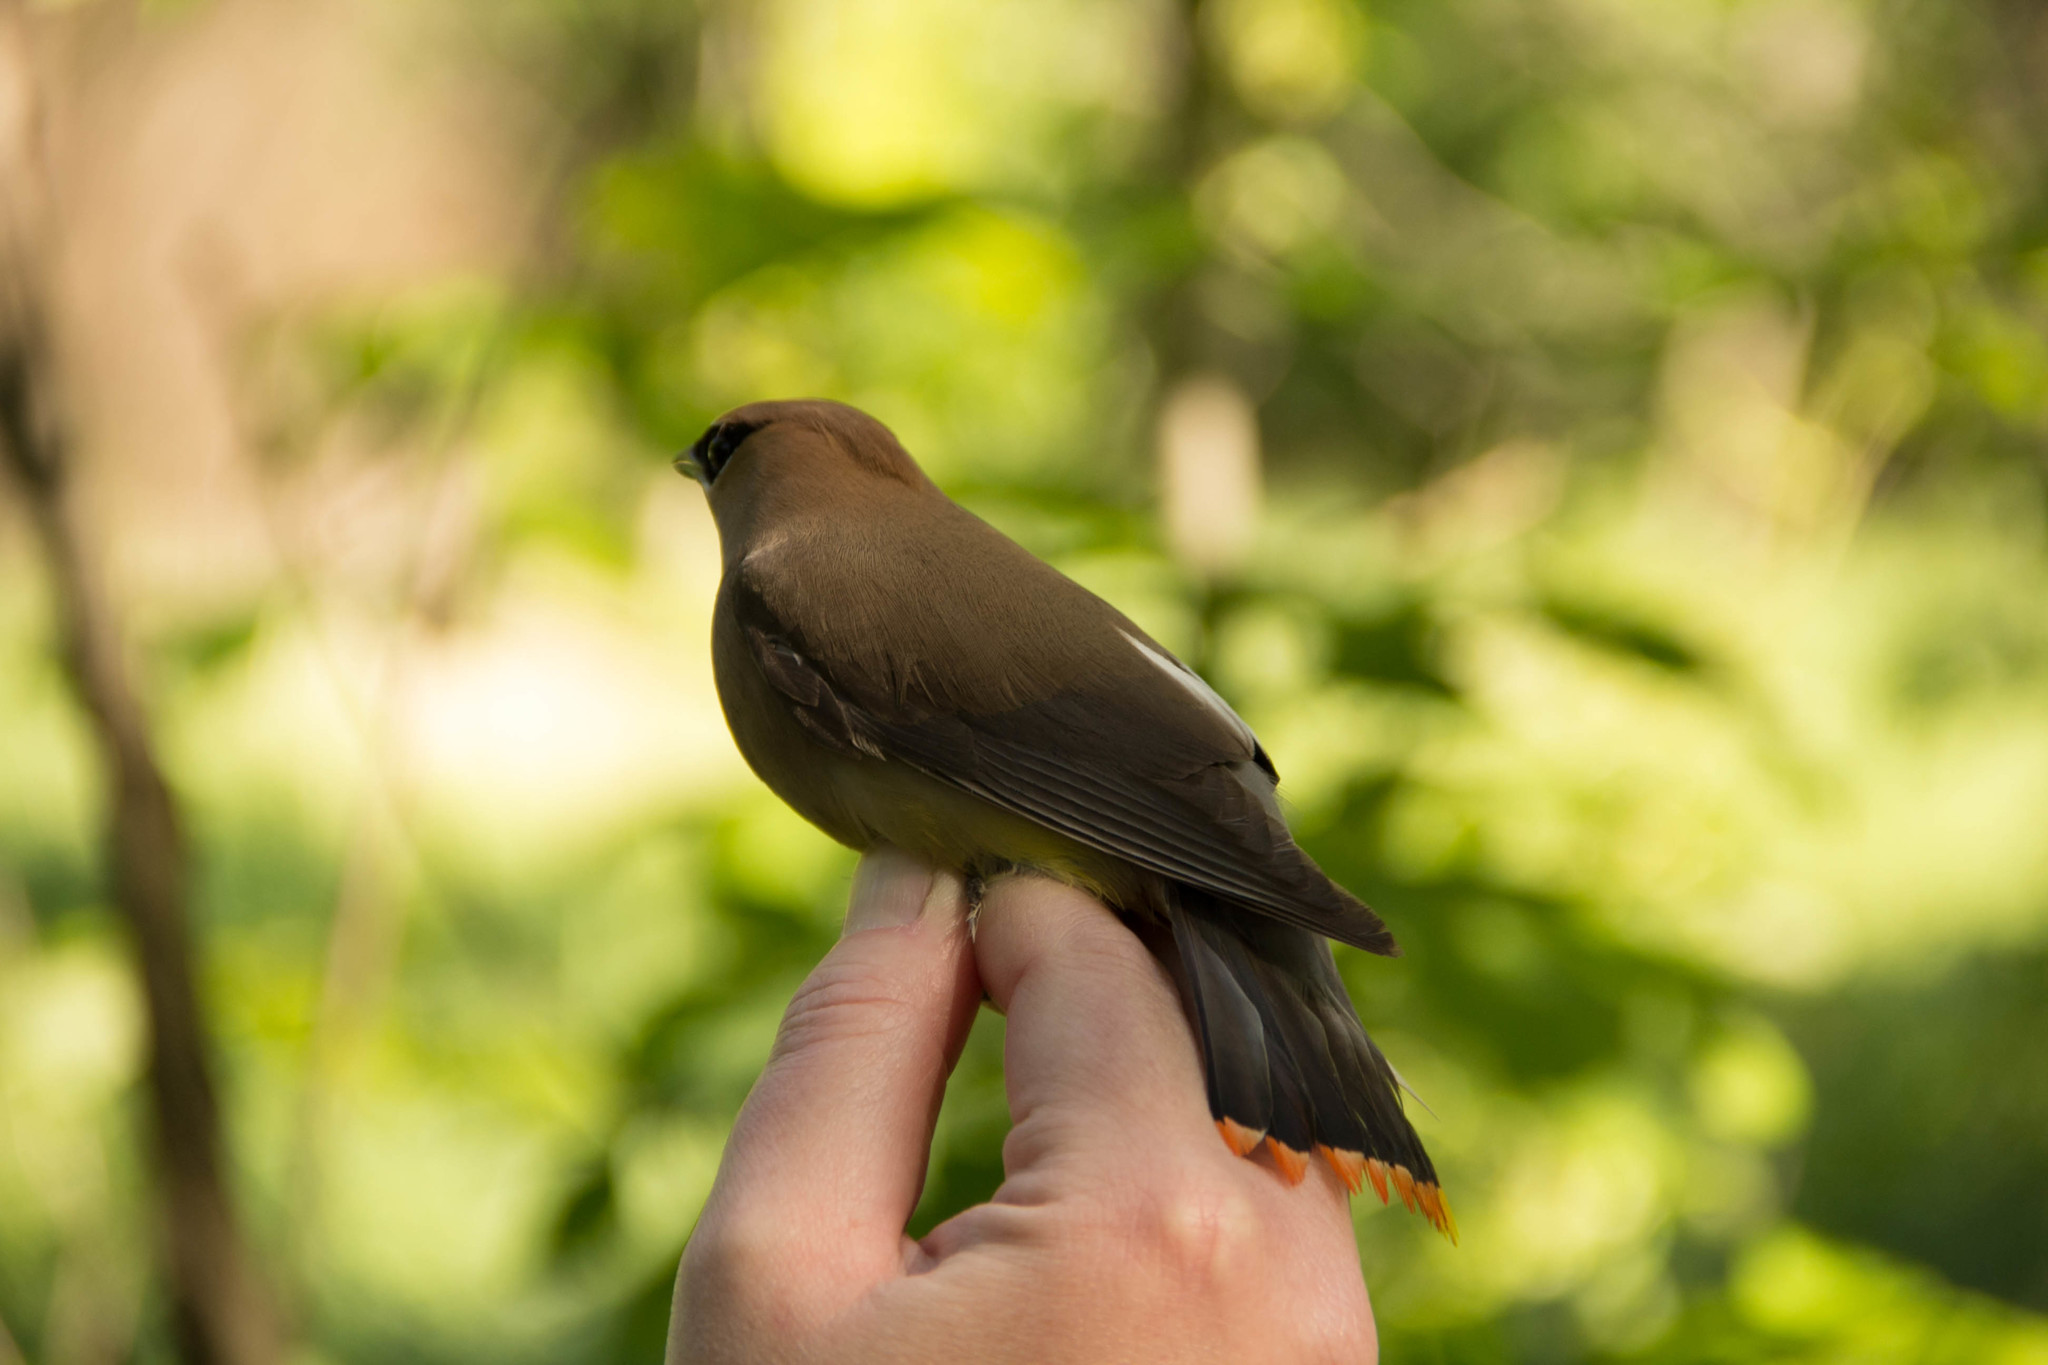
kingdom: Animalia
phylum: Chordata
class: Aves
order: Passeriformes
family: Bombycillidae
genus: Bombycilla
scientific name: Bombycilla cedrorum
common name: Cedar waxwing
